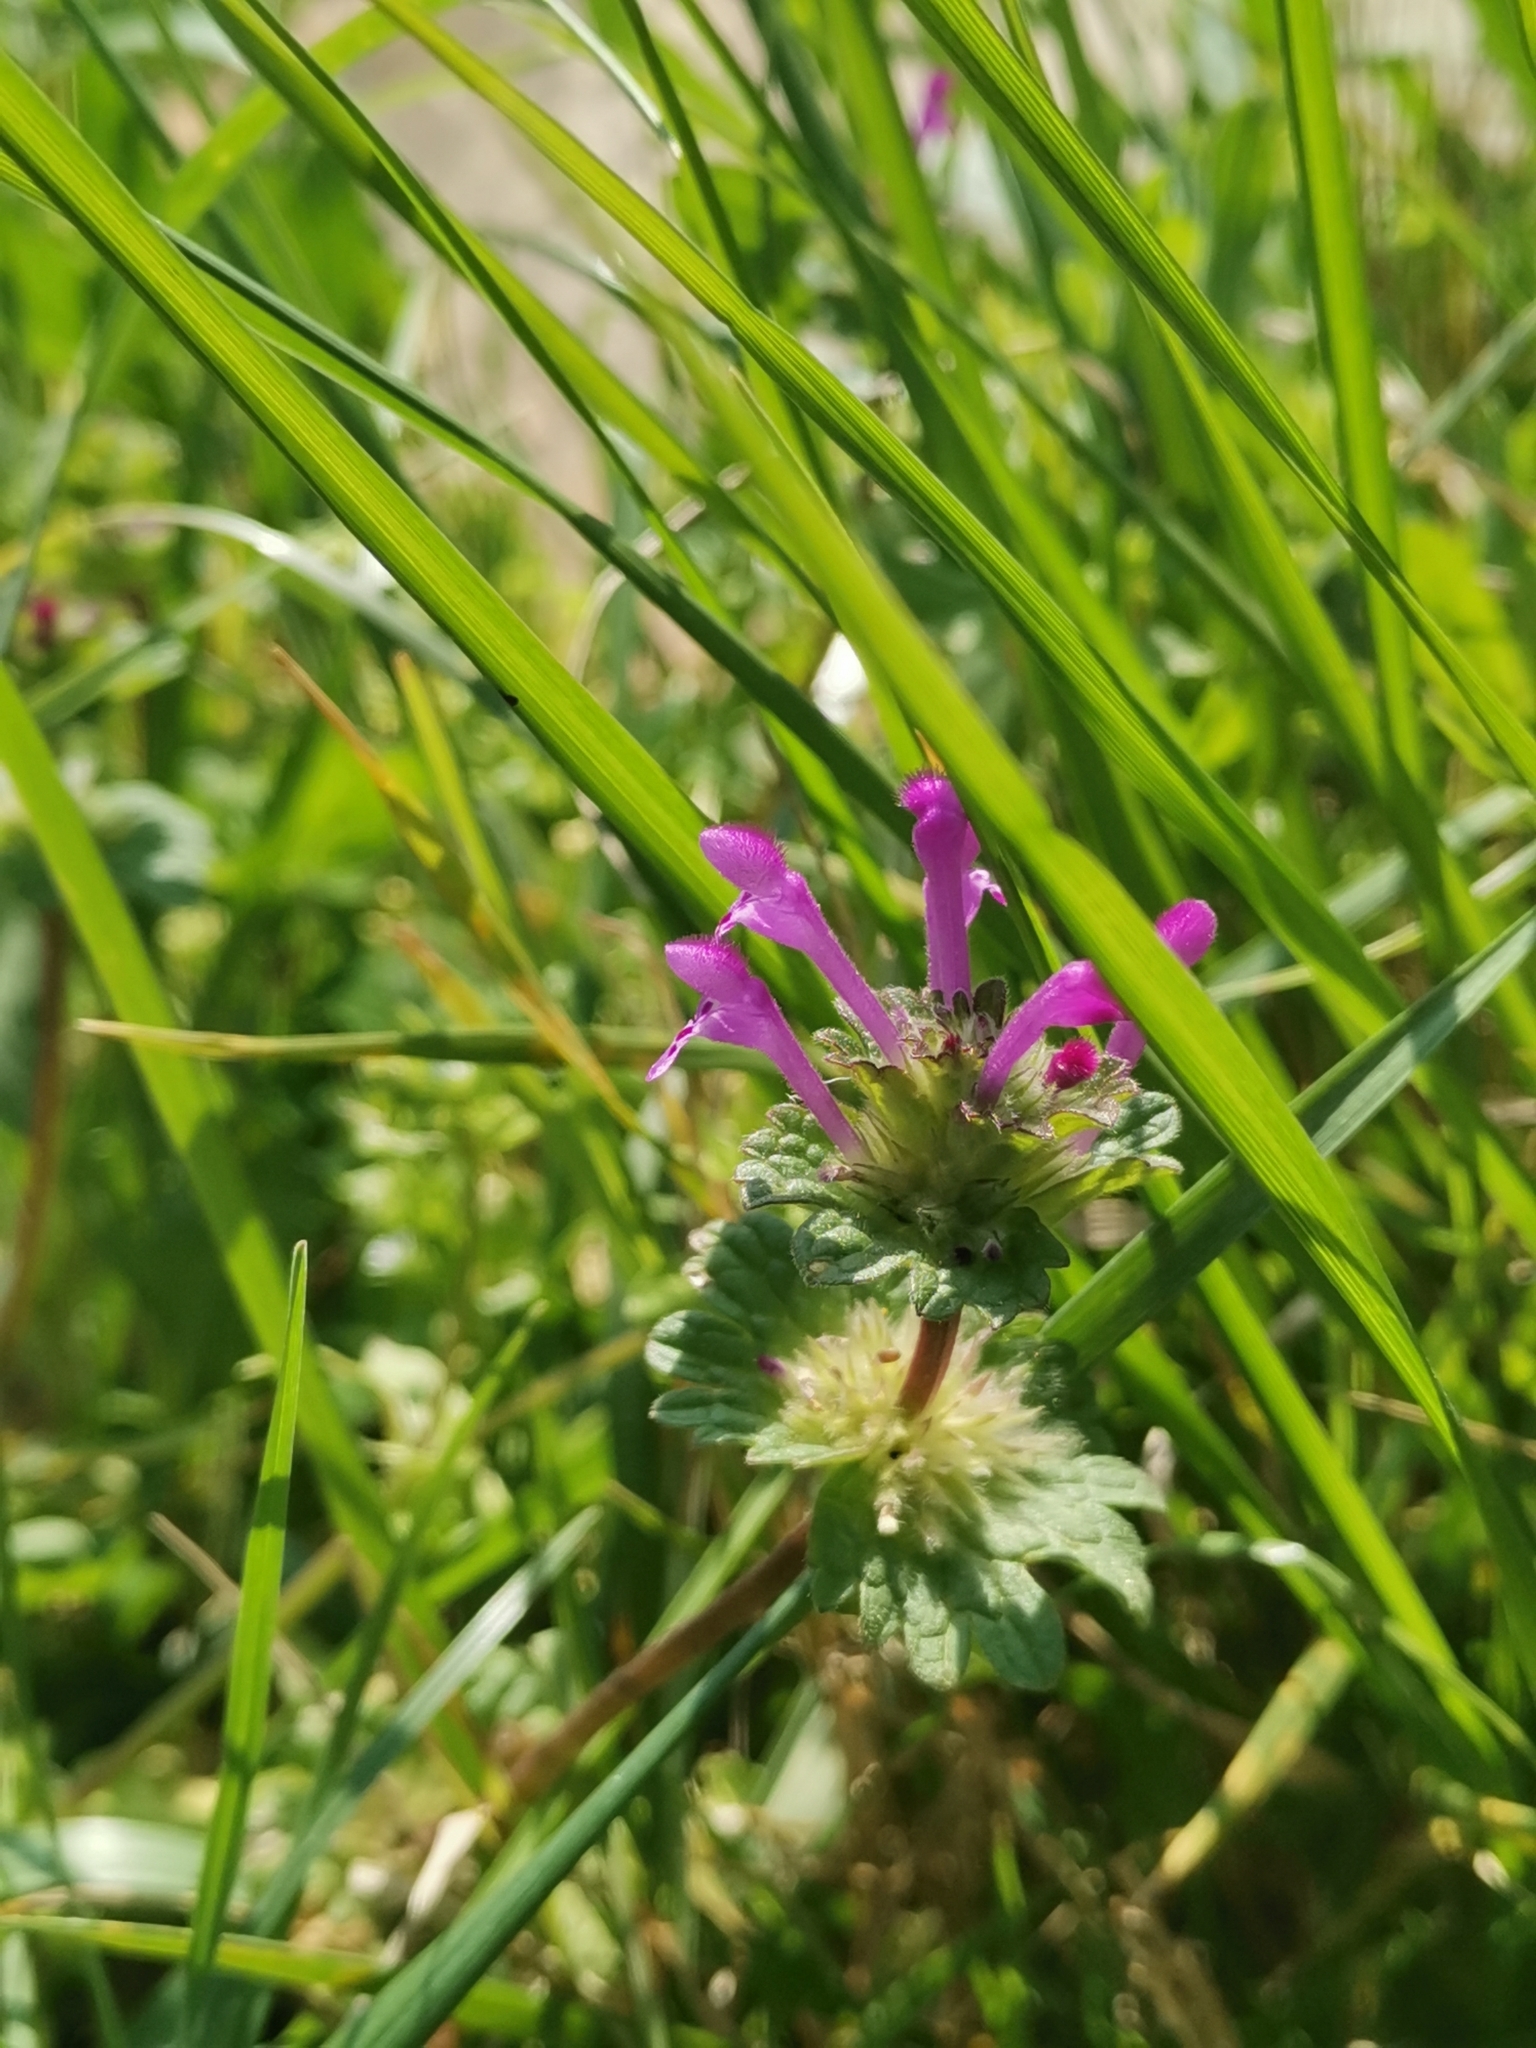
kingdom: Plantae
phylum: Tracheophyta
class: Magnoliopsida
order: Lamiales
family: Lamiaceae
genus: Lamium
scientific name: Lamium amplexicaule
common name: Henbit dead-nettle
